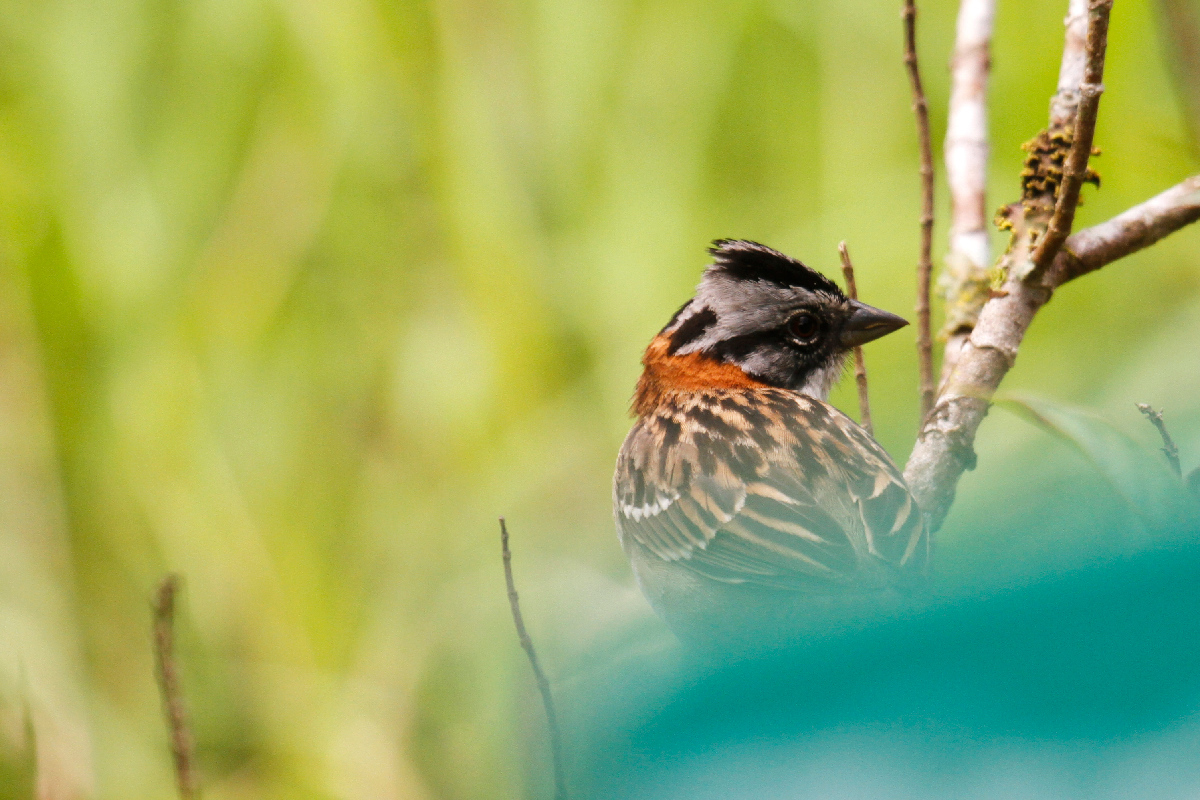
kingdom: Animalia
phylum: Chordata
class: Aves
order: Passeriformes
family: Passerellidae
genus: Zonotrichia
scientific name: Zonotrichia capensis
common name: Rufous-collared sparrow
